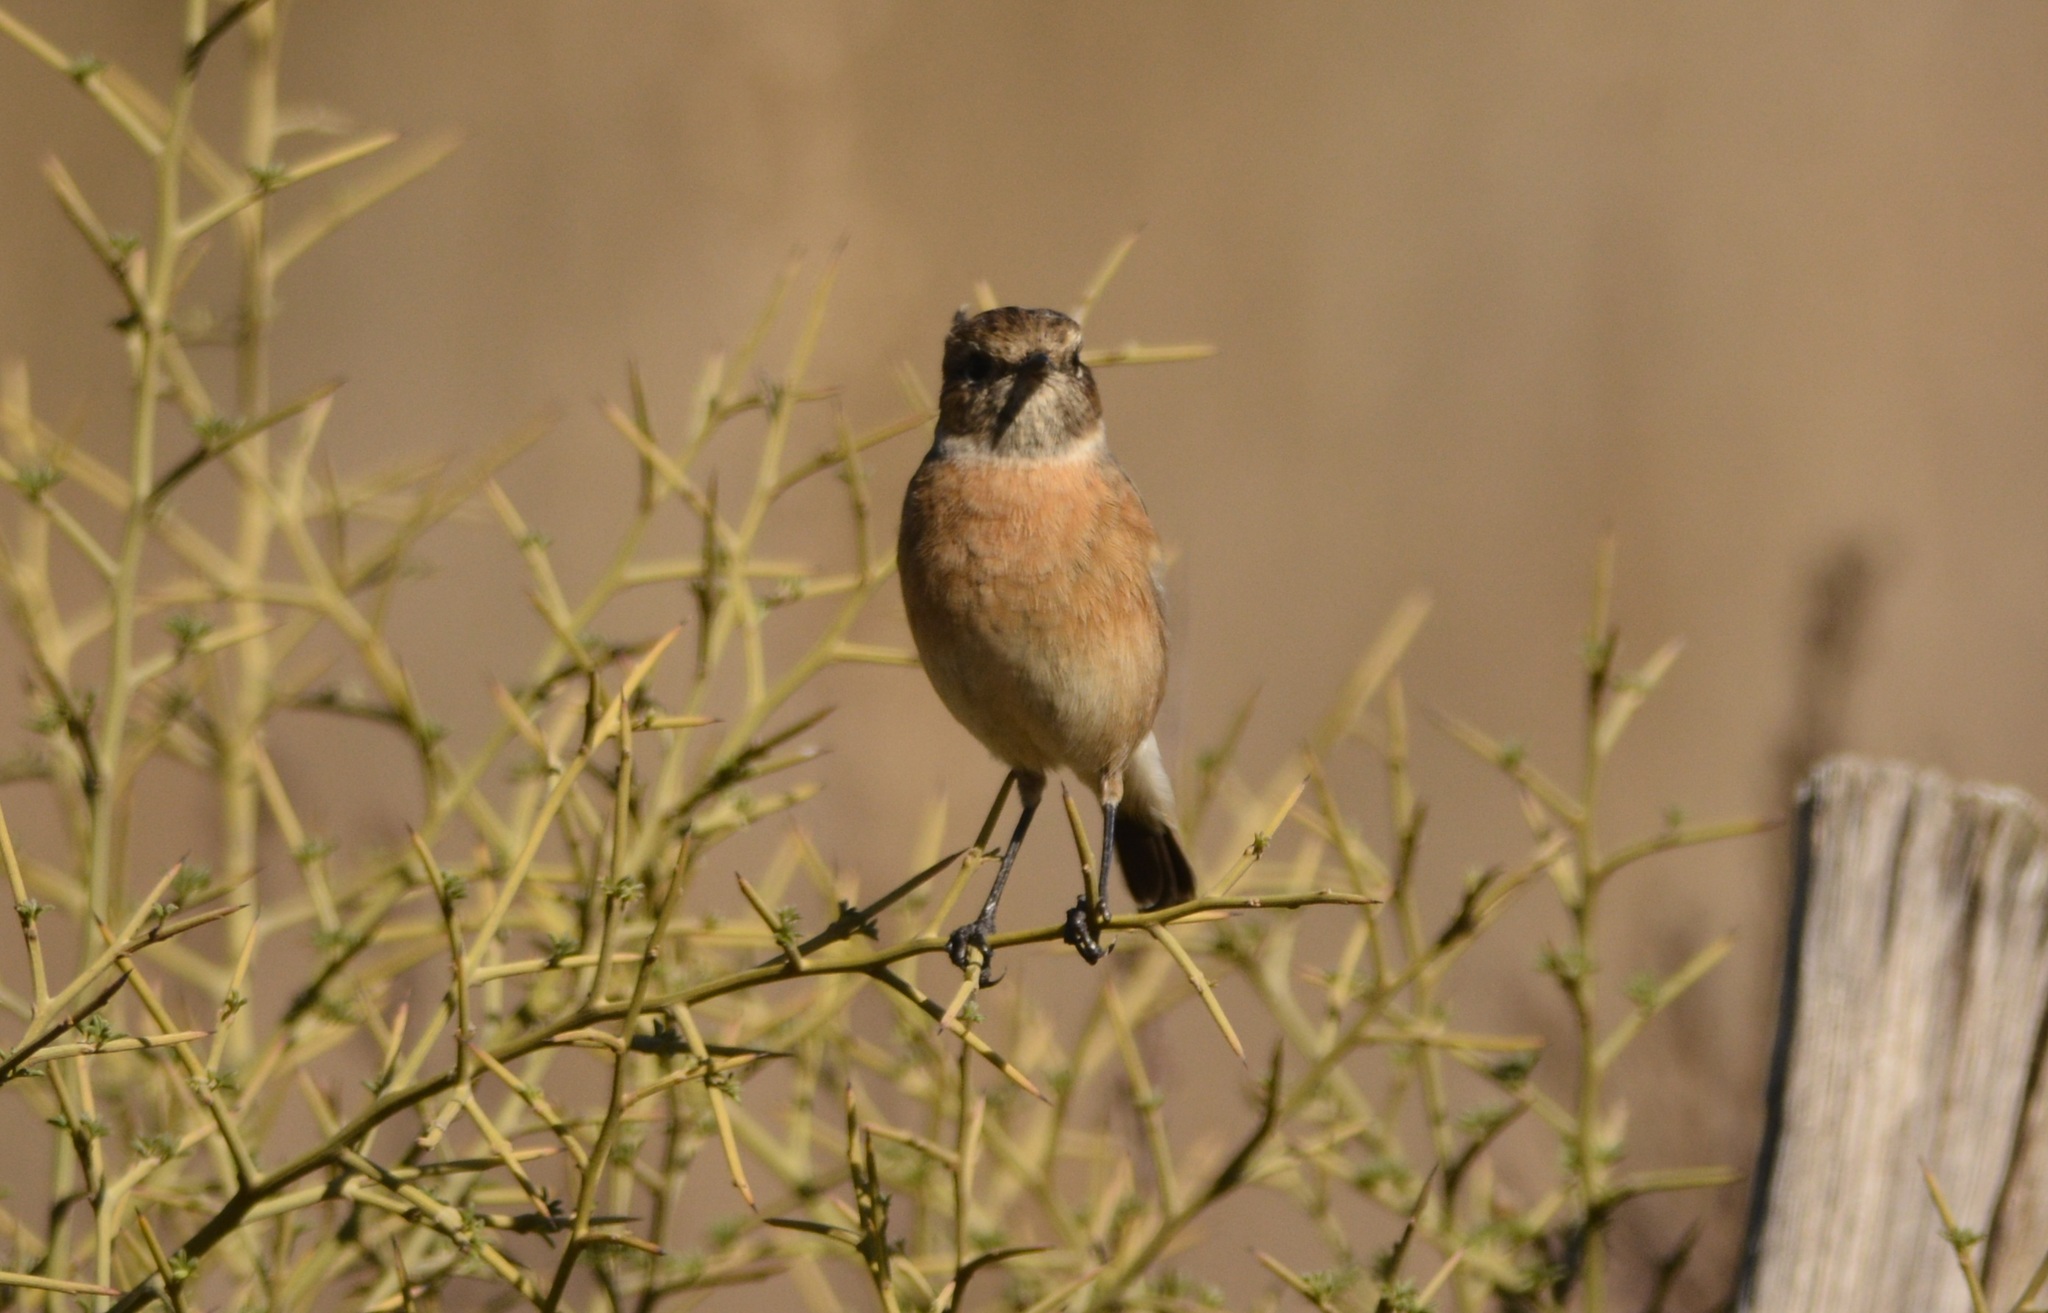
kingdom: Animalia
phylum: Chordata
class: Aves
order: Passeriformes
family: Muscicapidae
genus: Saxicola
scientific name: Saxicola rubicola
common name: European stonechat
